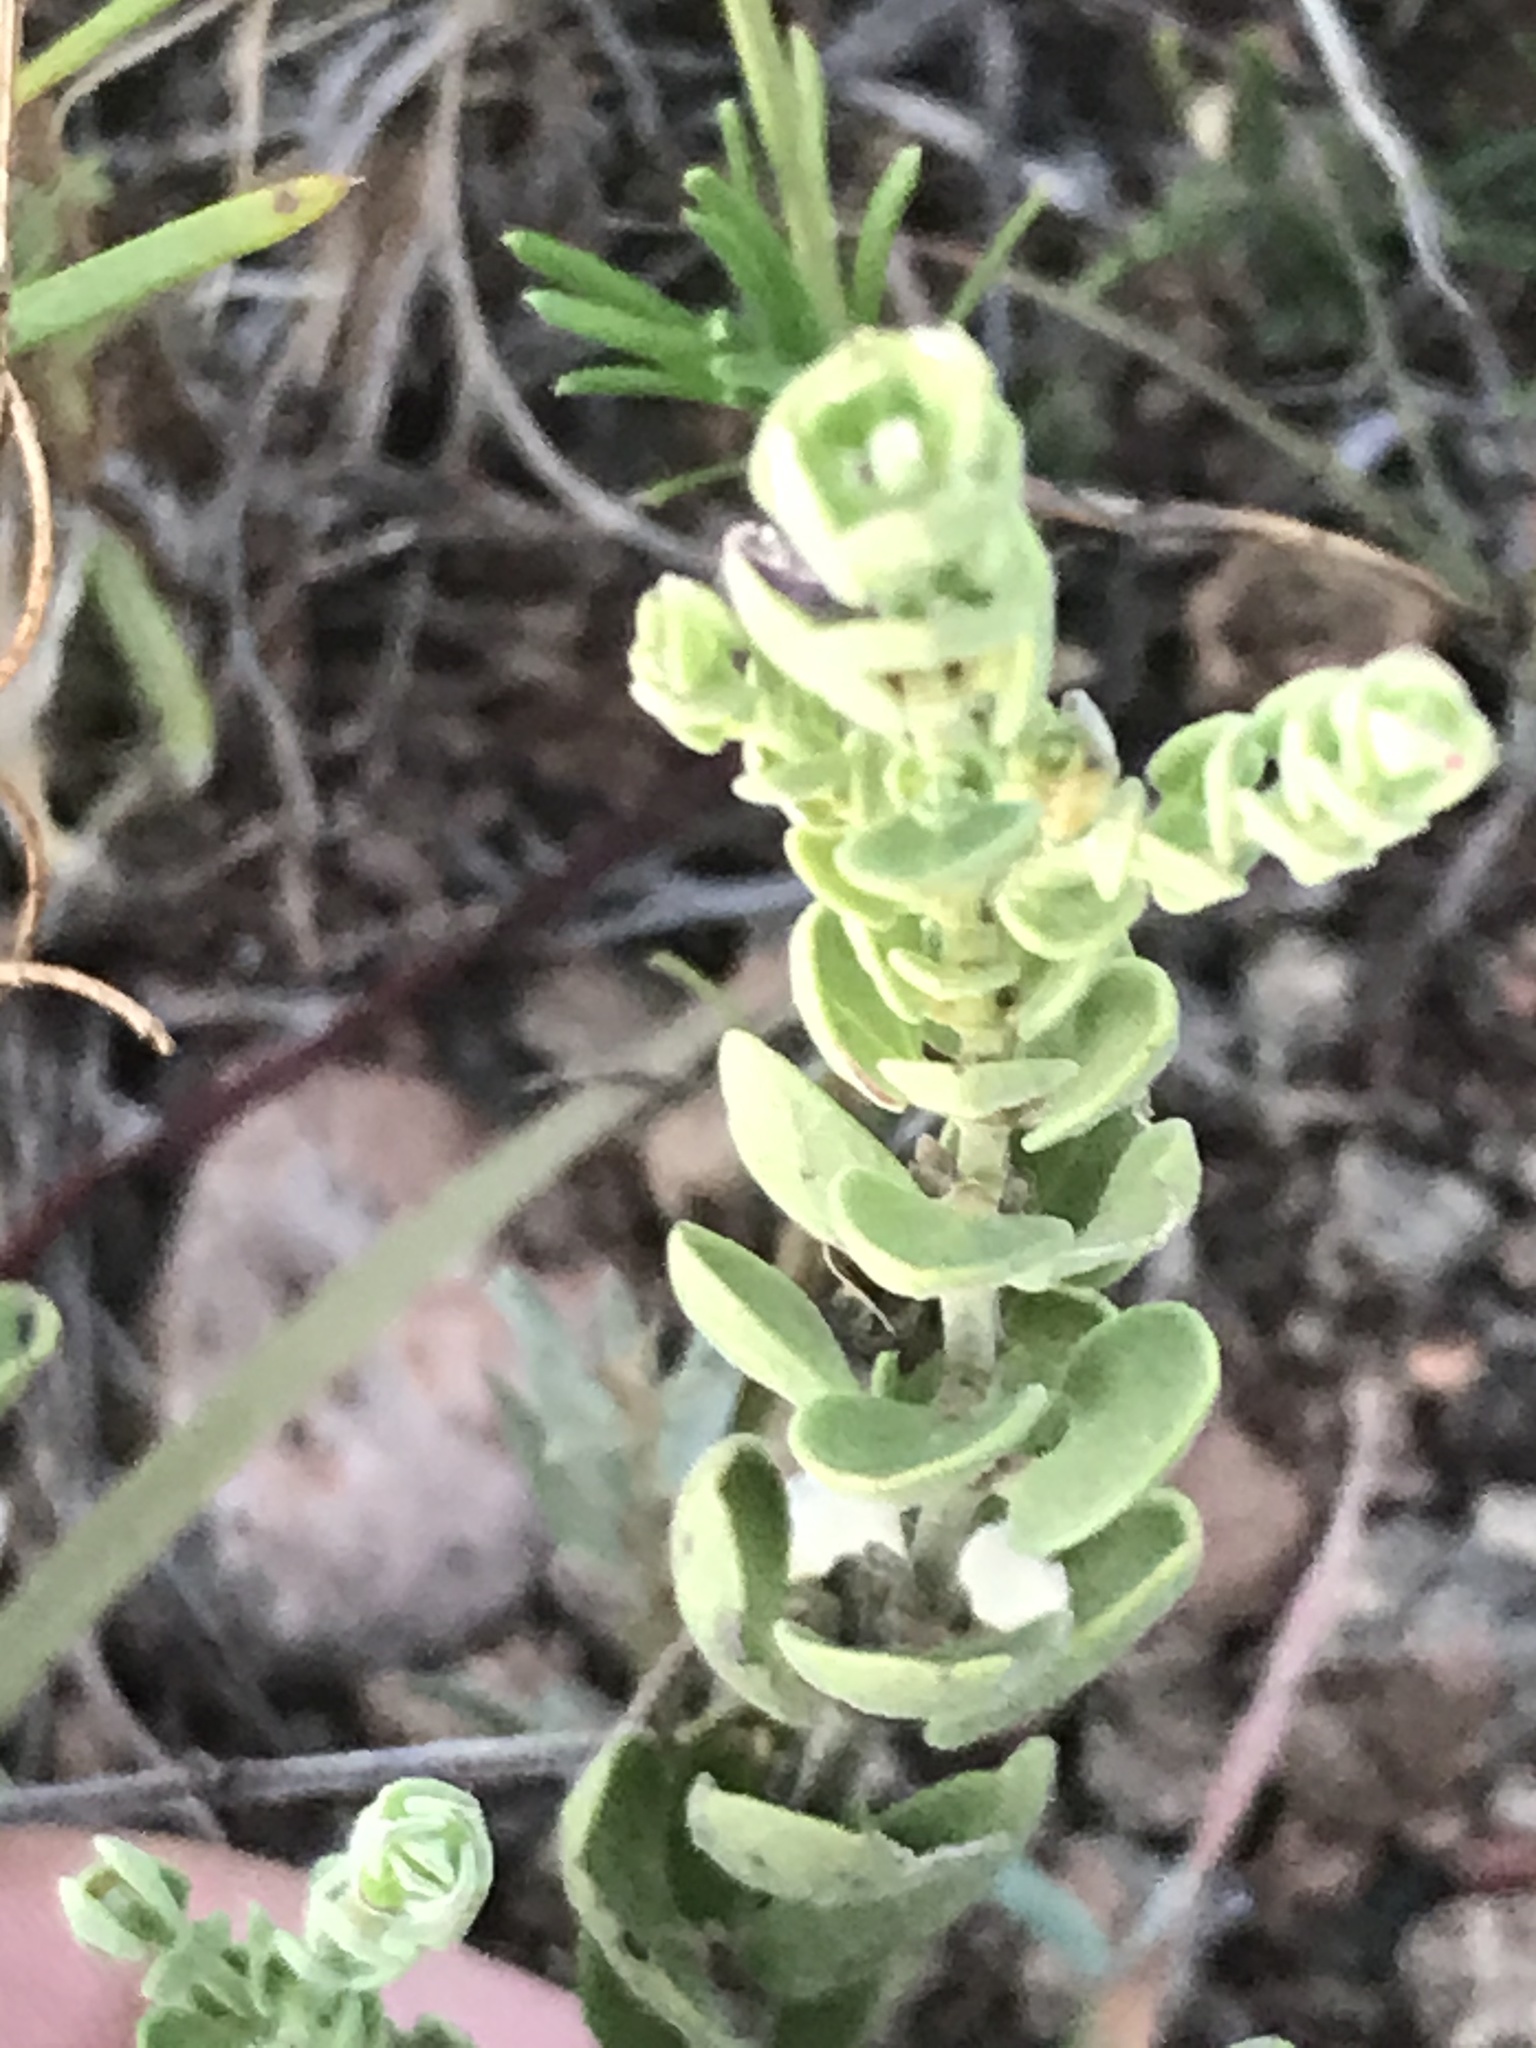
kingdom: Plantae
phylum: Tracheophyta
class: Magnoliopsida
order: Lamiales
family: Lamiaceae
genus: Scutellaria
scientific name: Scutellaria wrightii
